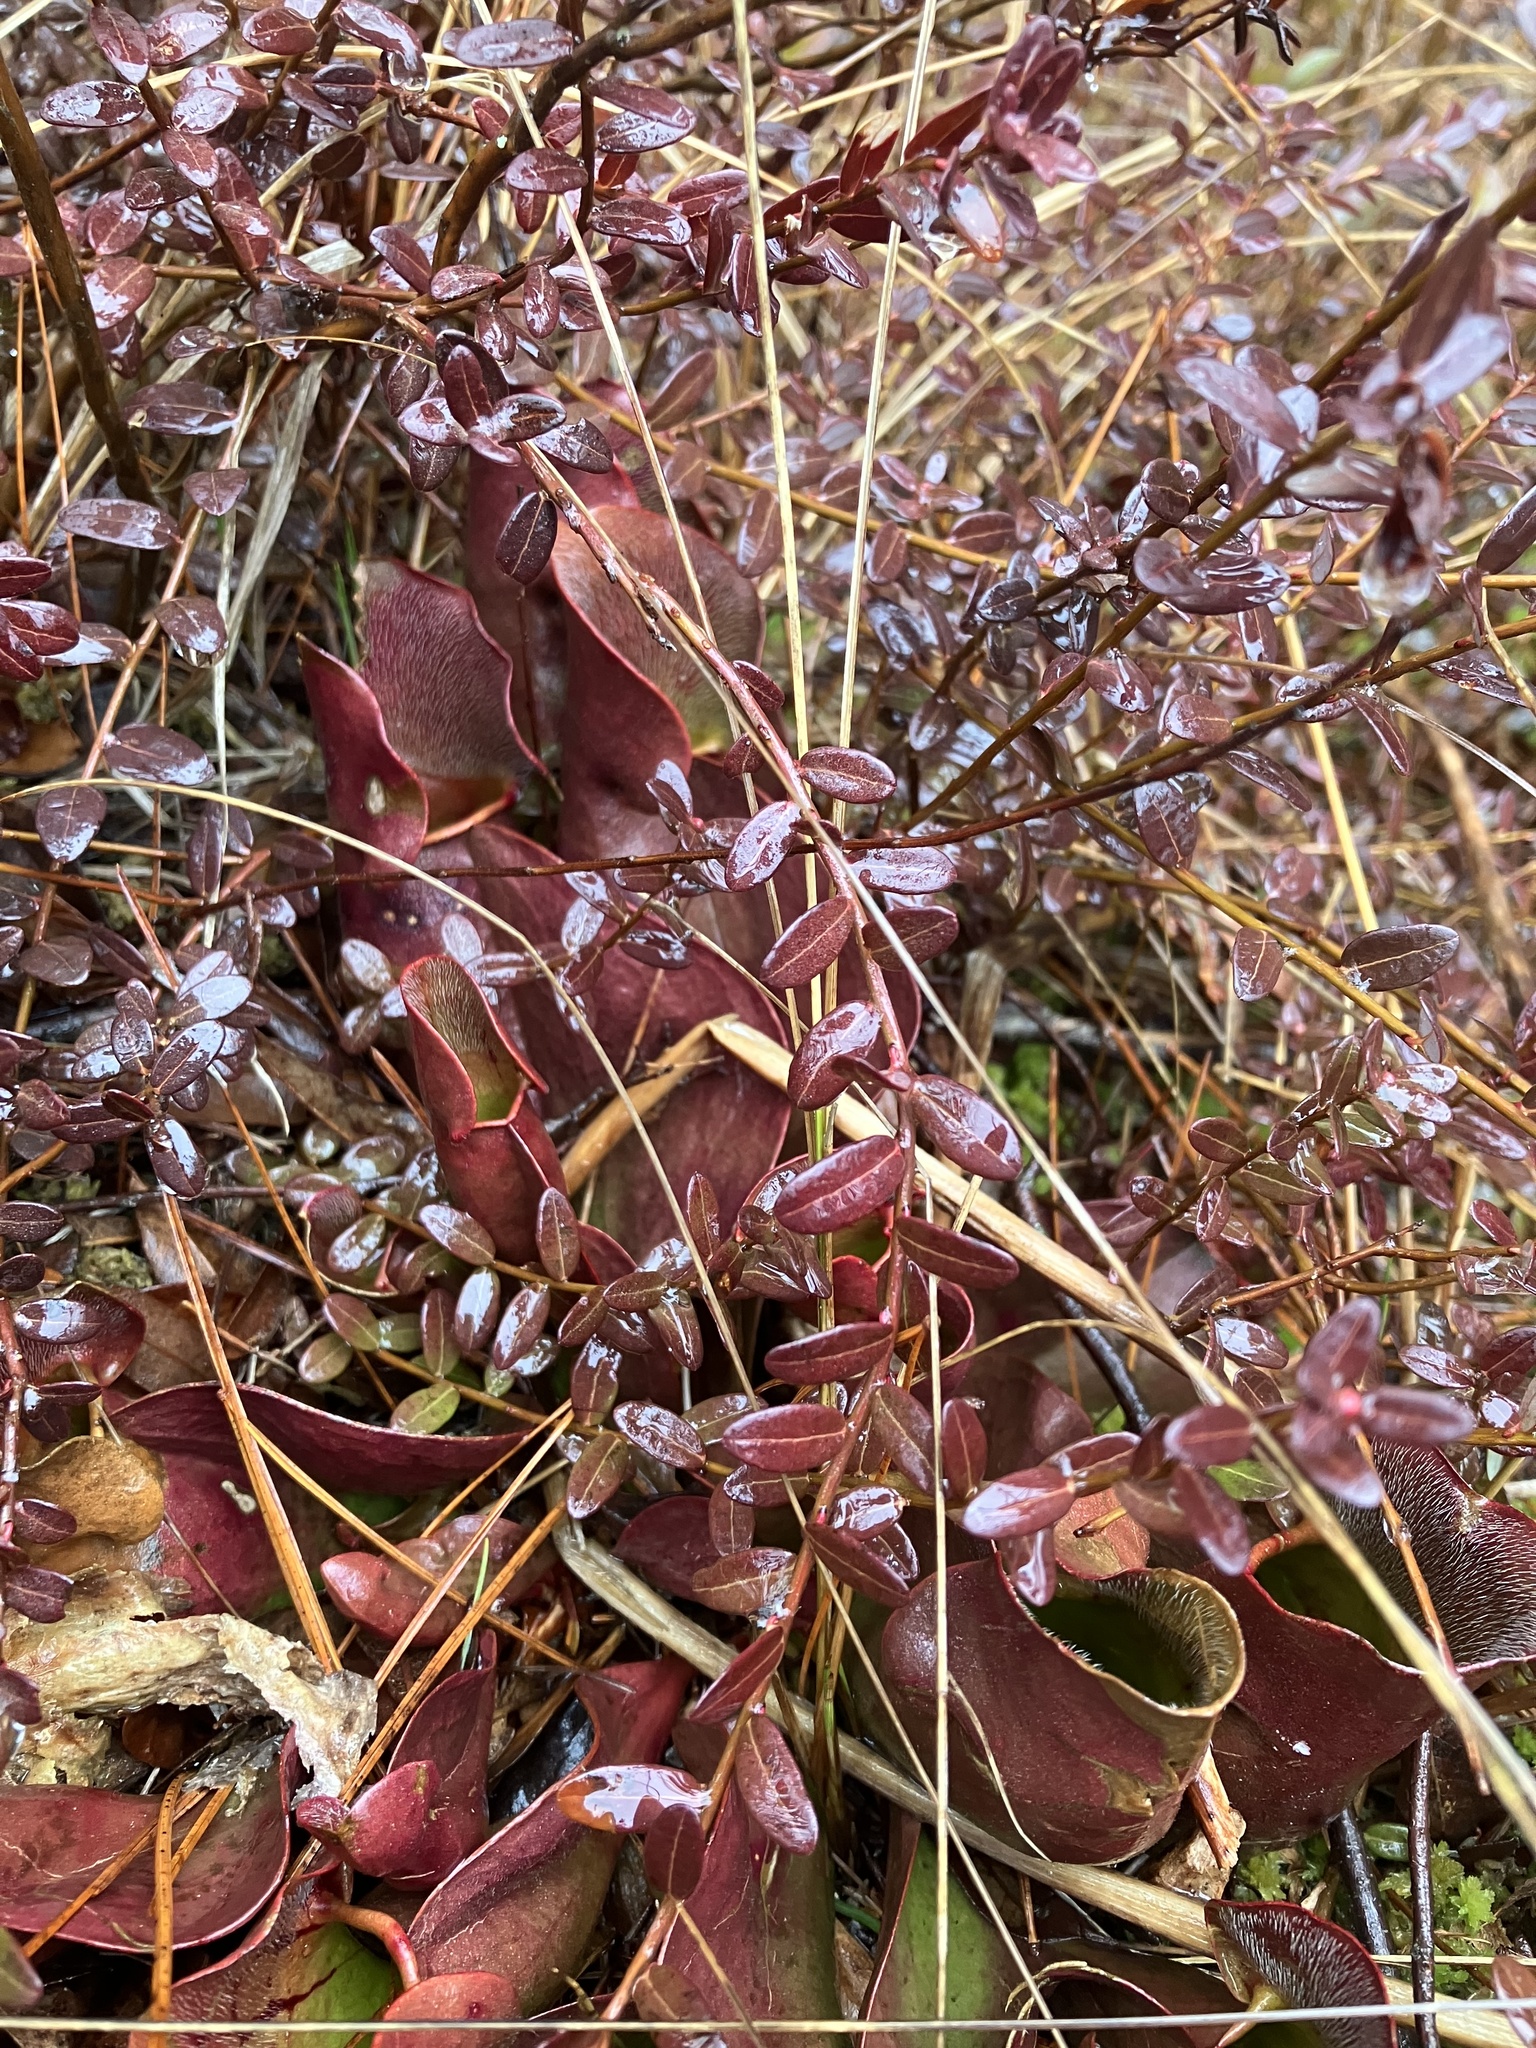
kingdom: Plantae
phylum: Tracheophyta
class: Magnoliopsida
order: Ericales
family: Sarraceniaceae
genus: Sarracenia
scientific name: Sarracenia purpurea
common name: Pitcherplant
